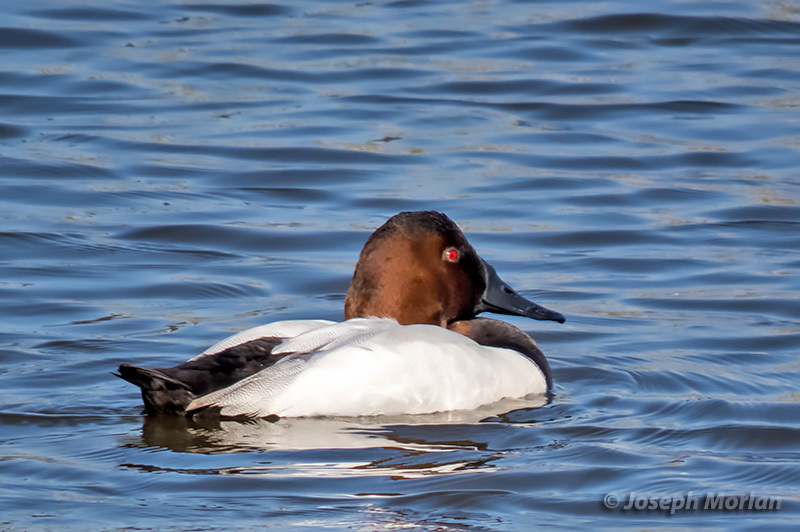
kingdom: Animalia
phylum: Chordata
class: Aves
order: Anseriformes
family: Anatidae
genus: Aythya
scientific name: Aythya valisineria
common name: Canvasback
